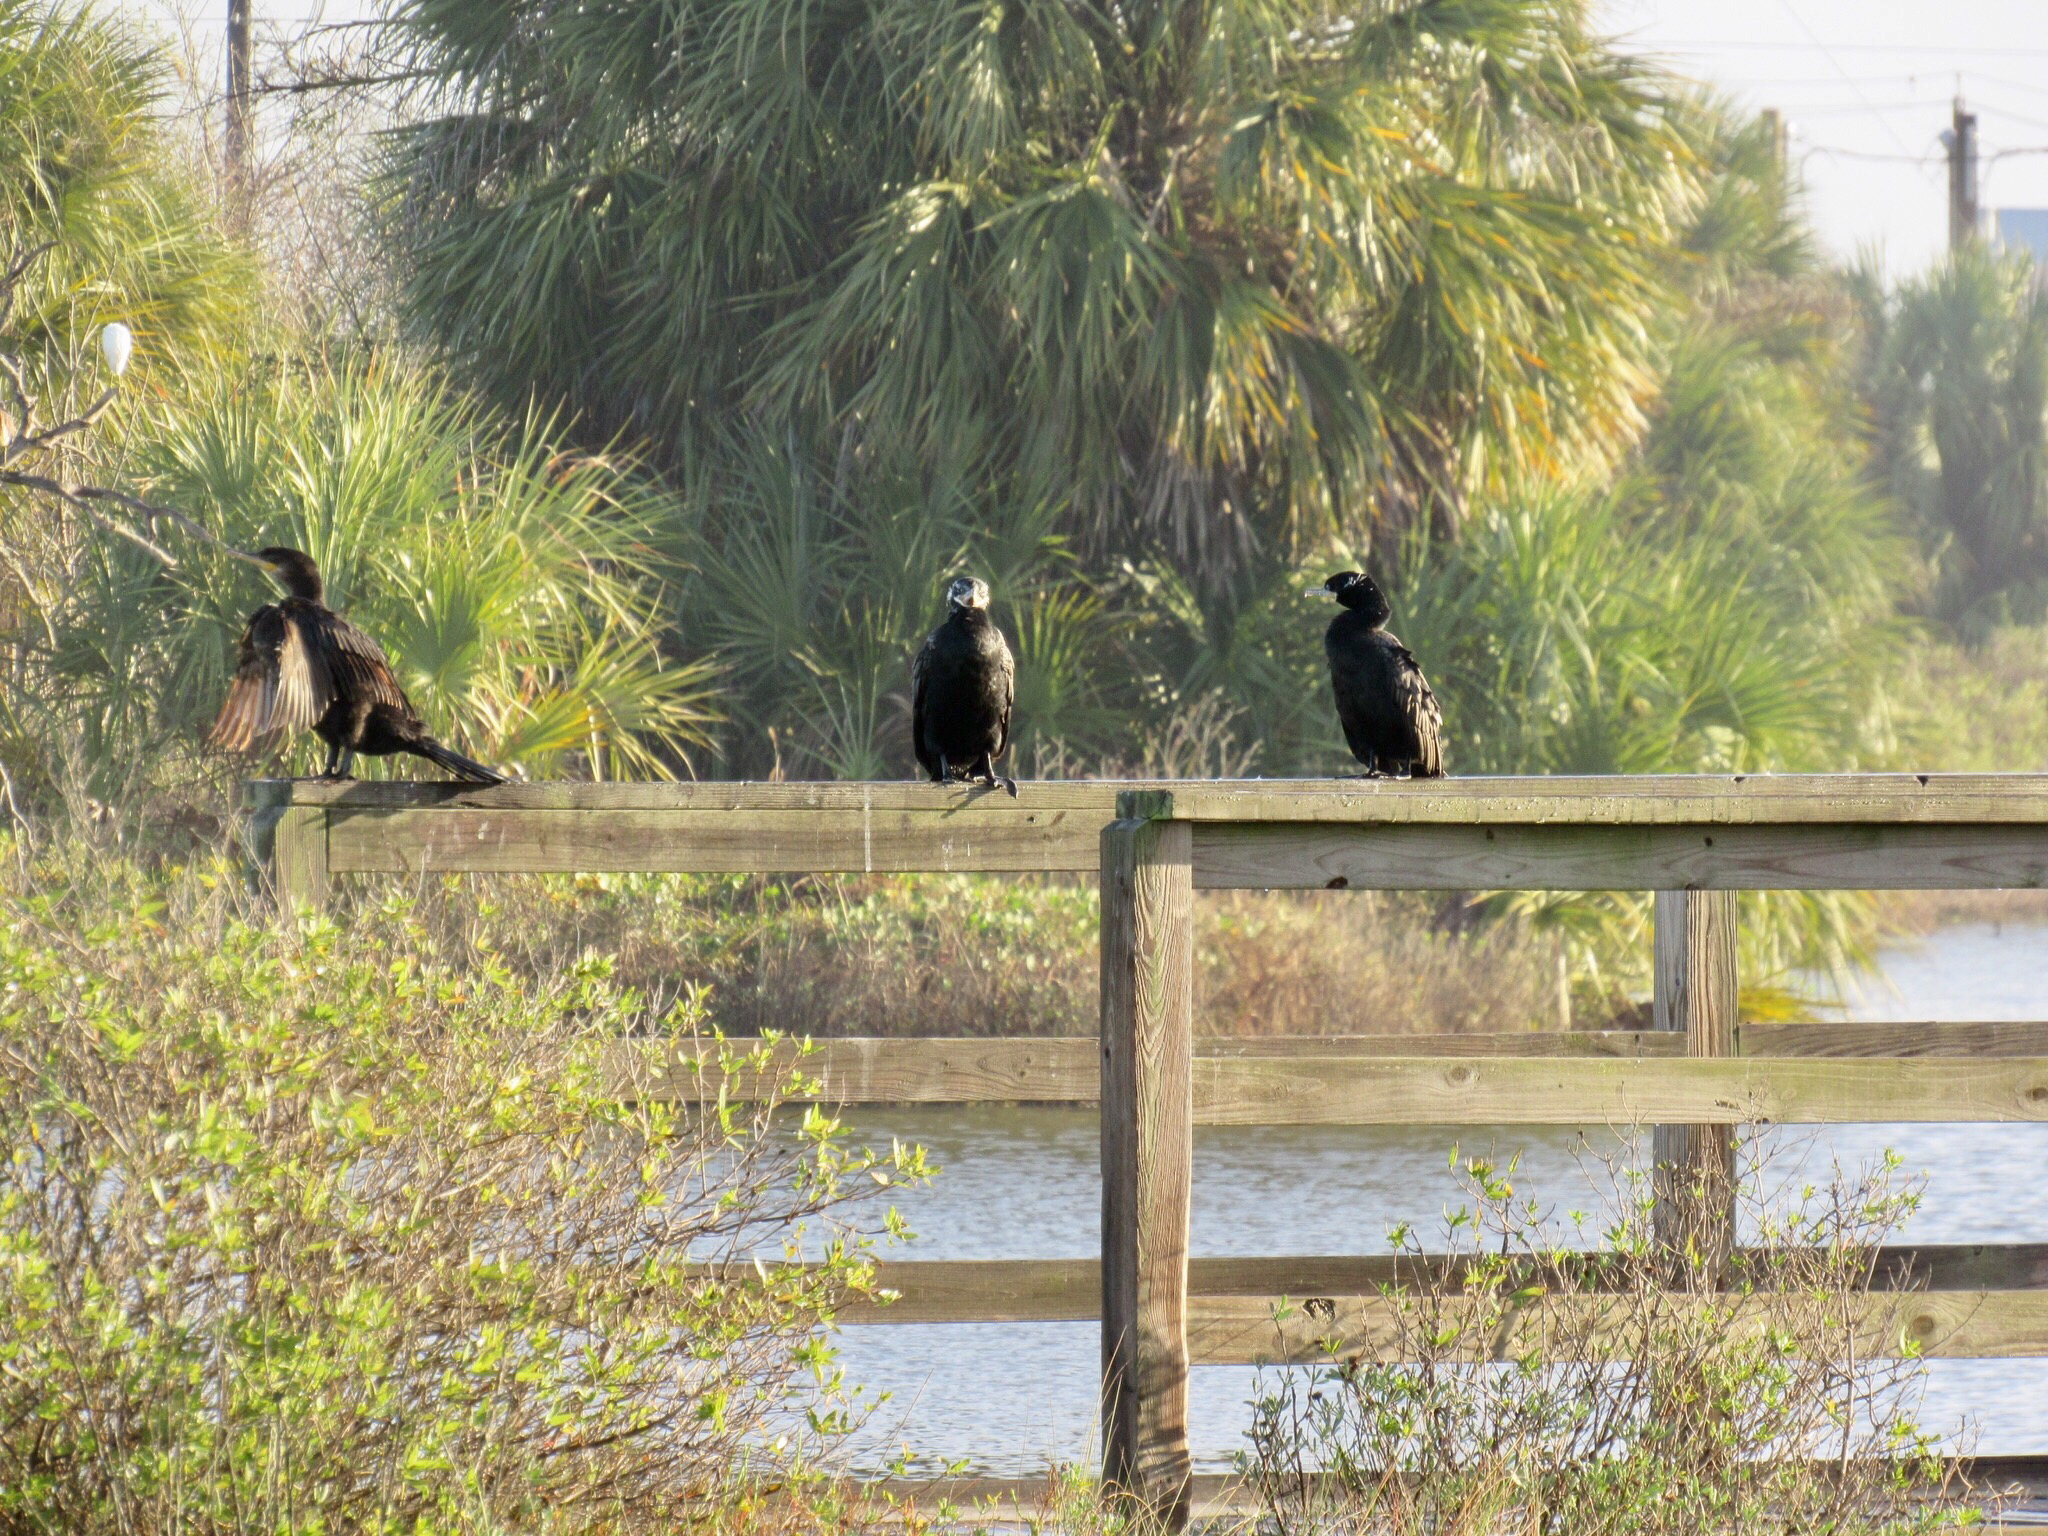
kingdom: Animalia
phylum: Chordata
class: Aves
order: Suliformes
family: Phalacrocoracidae
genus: Phalacrocorax
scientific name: Phalacrocorax brasilianus
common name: Neotropic cormorant
